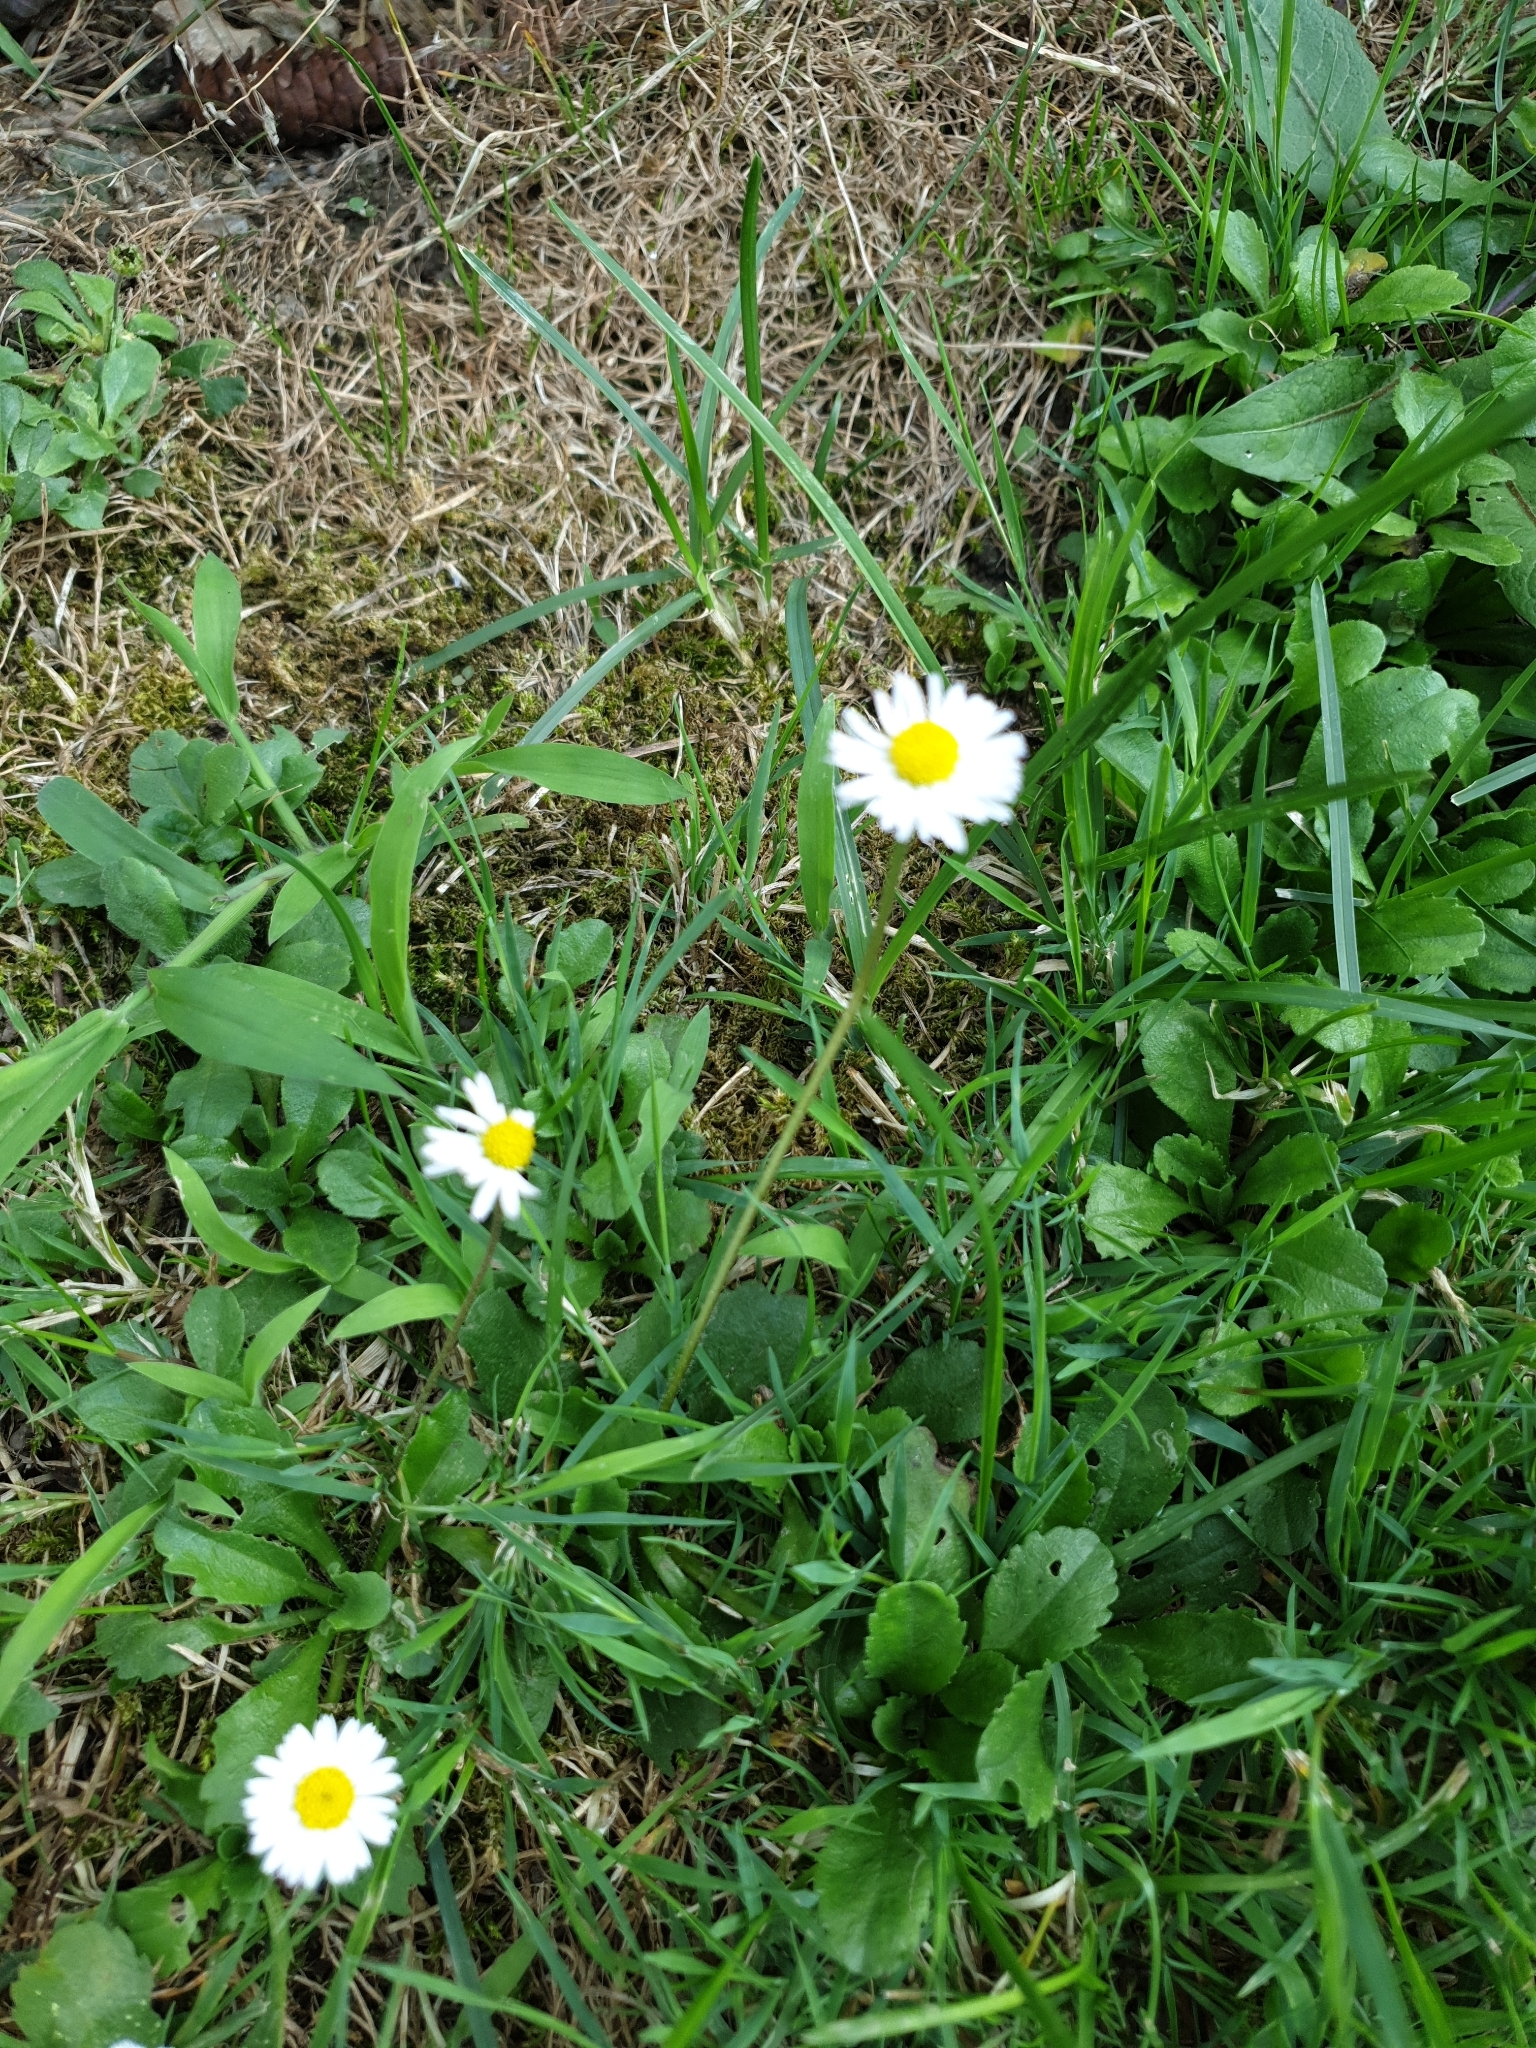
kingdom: Plantae
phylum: Tracheophyta
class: Magnoliopsida
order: Asterales
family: Asteraceae
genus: Bellis
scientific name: Bellis perennis
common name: Lawndaisy
